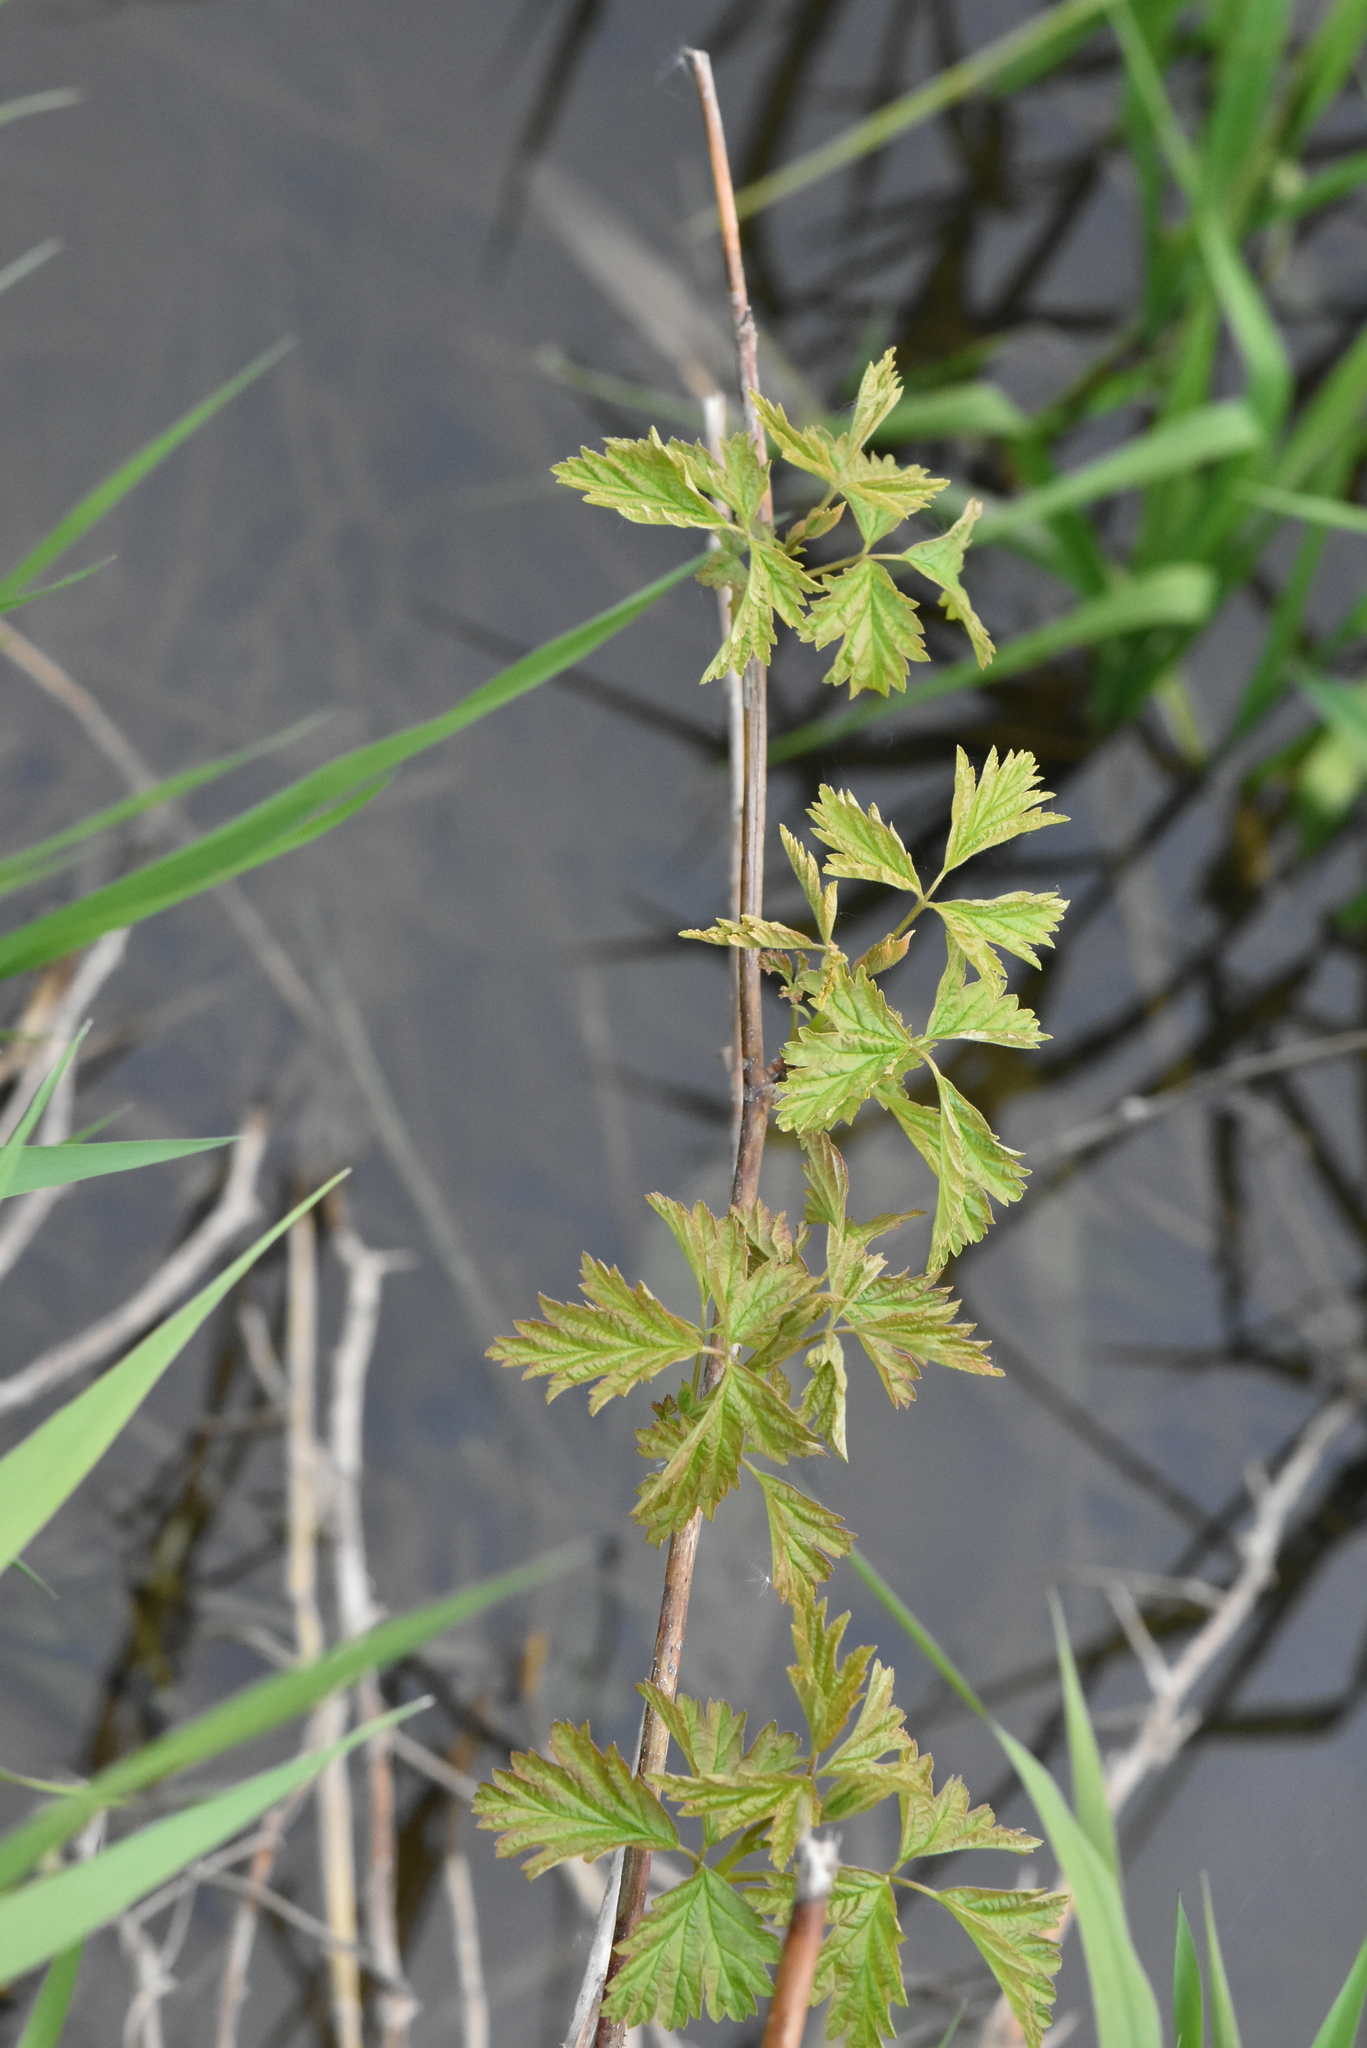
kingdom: Plantae
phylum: Tracheophyta
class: Magnoliopsida
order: Rosales
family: Rosaceae
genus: Rubus
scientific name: Rubus caesius
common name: Dewberry
